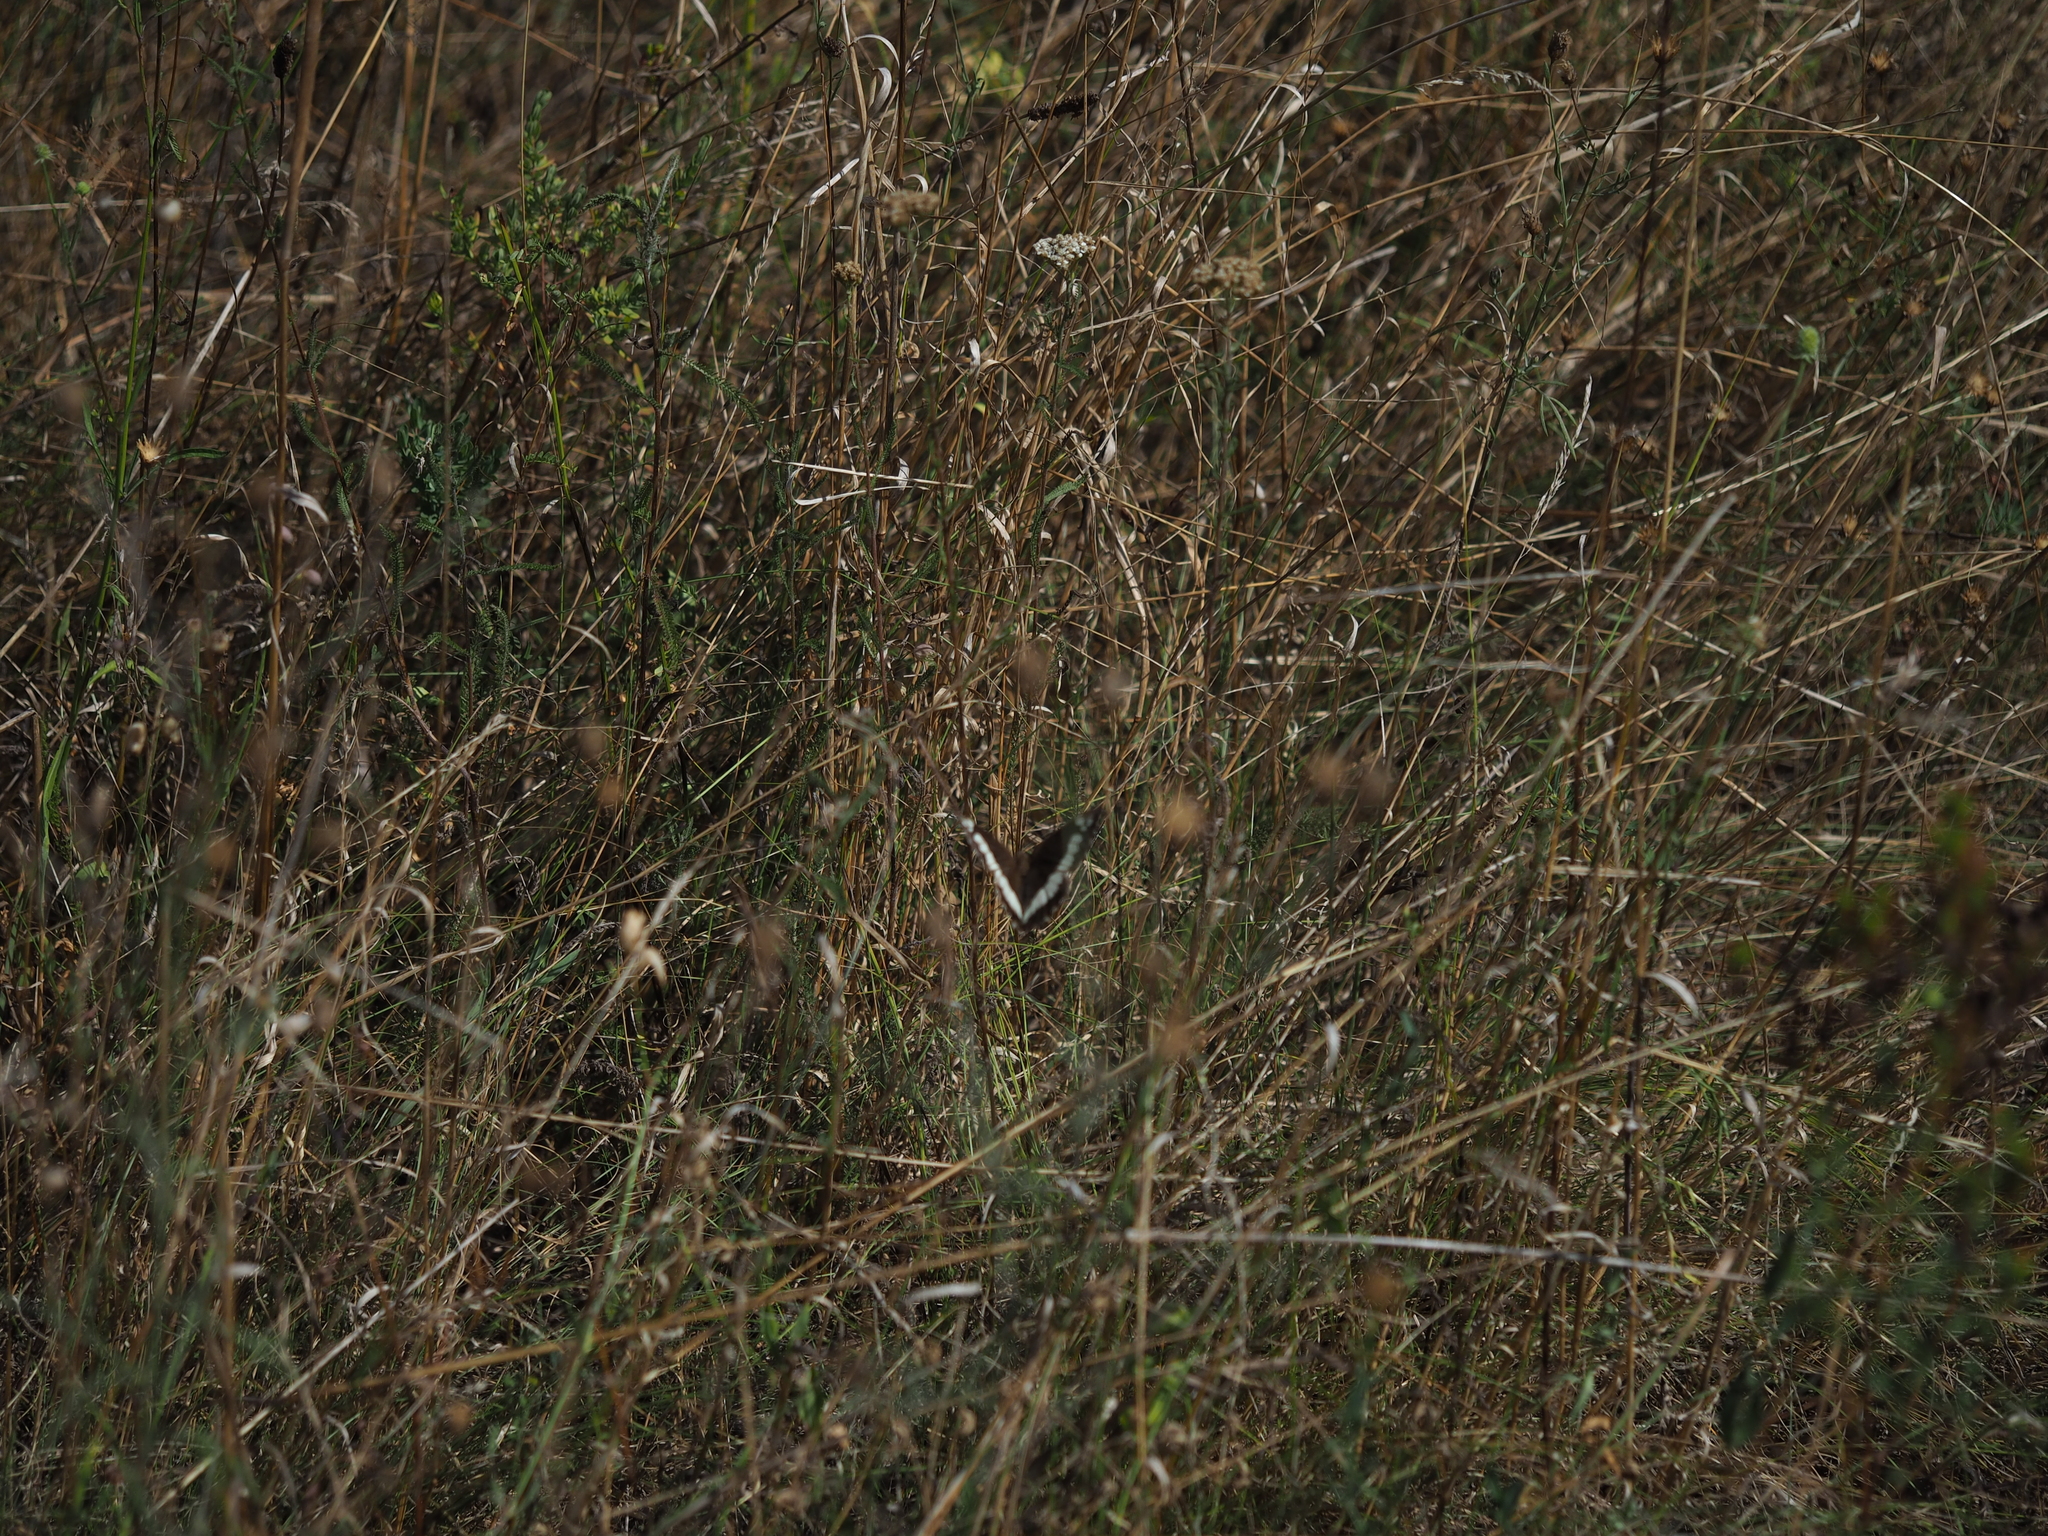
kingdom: Animalia
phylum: Arthropoda
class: Insecta
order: Lepidoptera
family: Lycaenidae
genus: Loweia
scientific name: Loweia tityrus
